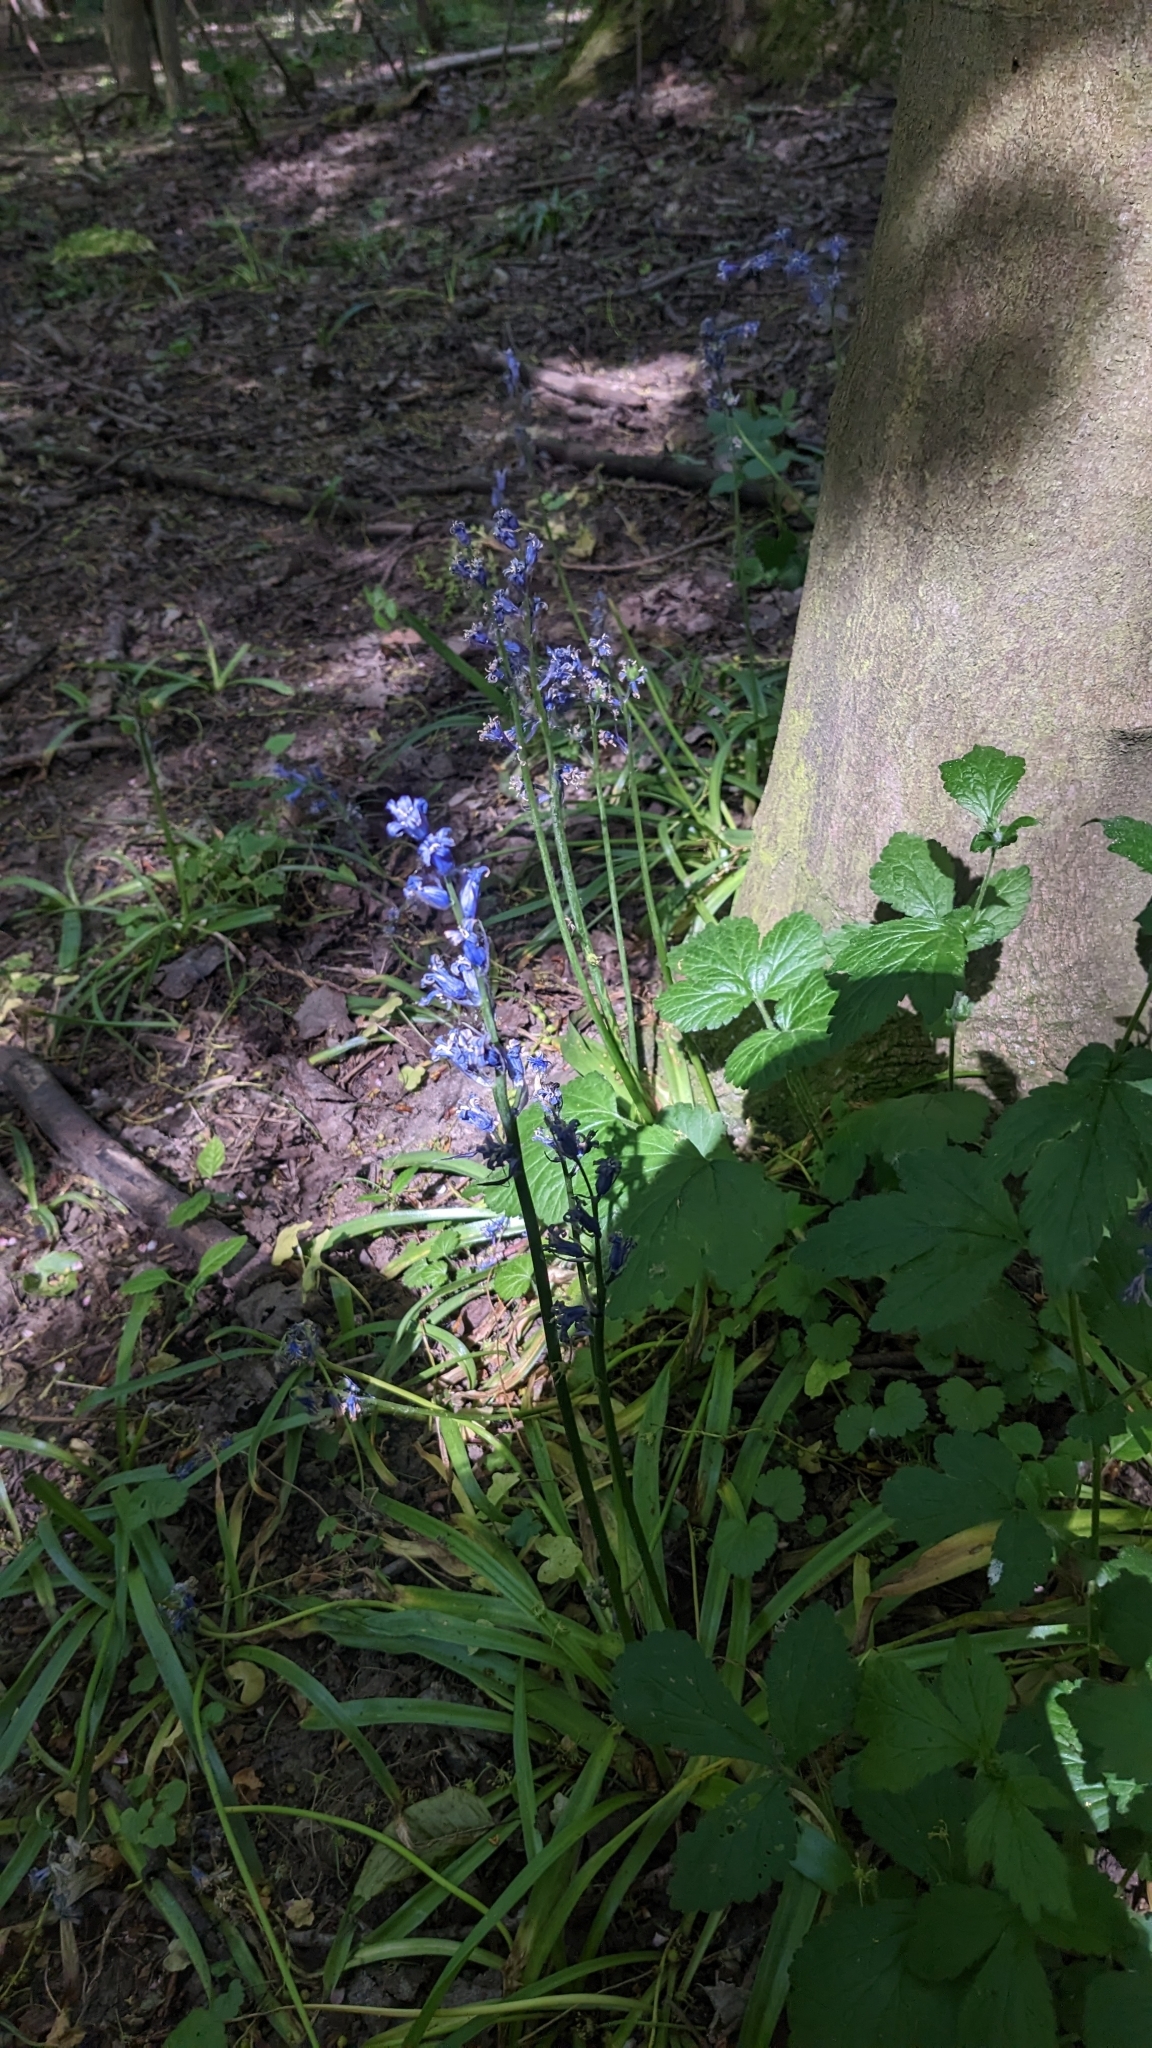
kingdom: Fungi
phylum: Basidiomycota
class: Pucciniomycetes
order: Pucciniales
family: Pucciniaceae
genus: Uromyces
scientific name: Uromyces hyacinthi
